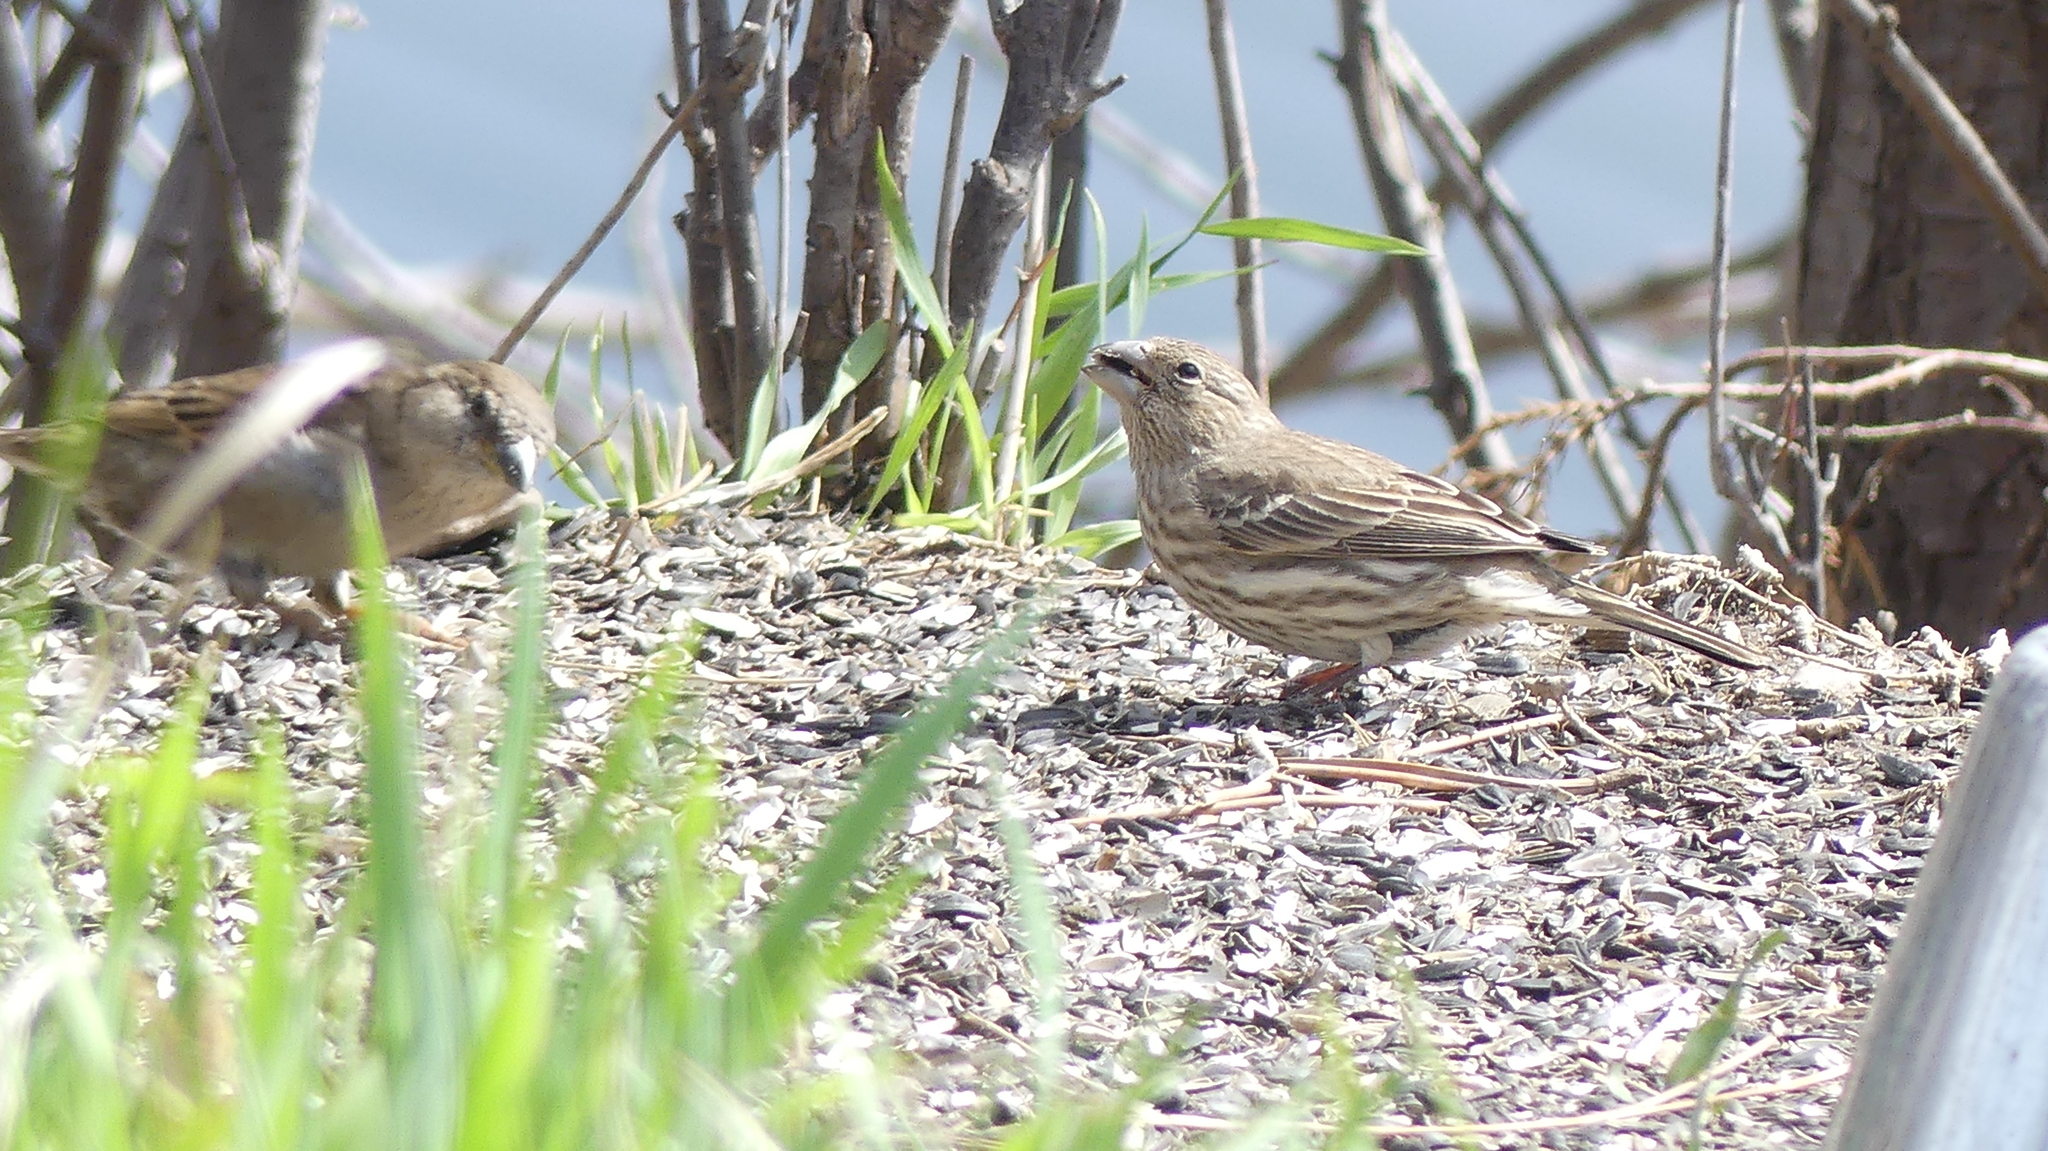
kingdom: Animalia
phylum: Chordata
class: Aves
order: Passeriformes
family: Fringillidae
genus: Haemorhous
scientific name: Haemorhous mexicanus
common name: House finch
